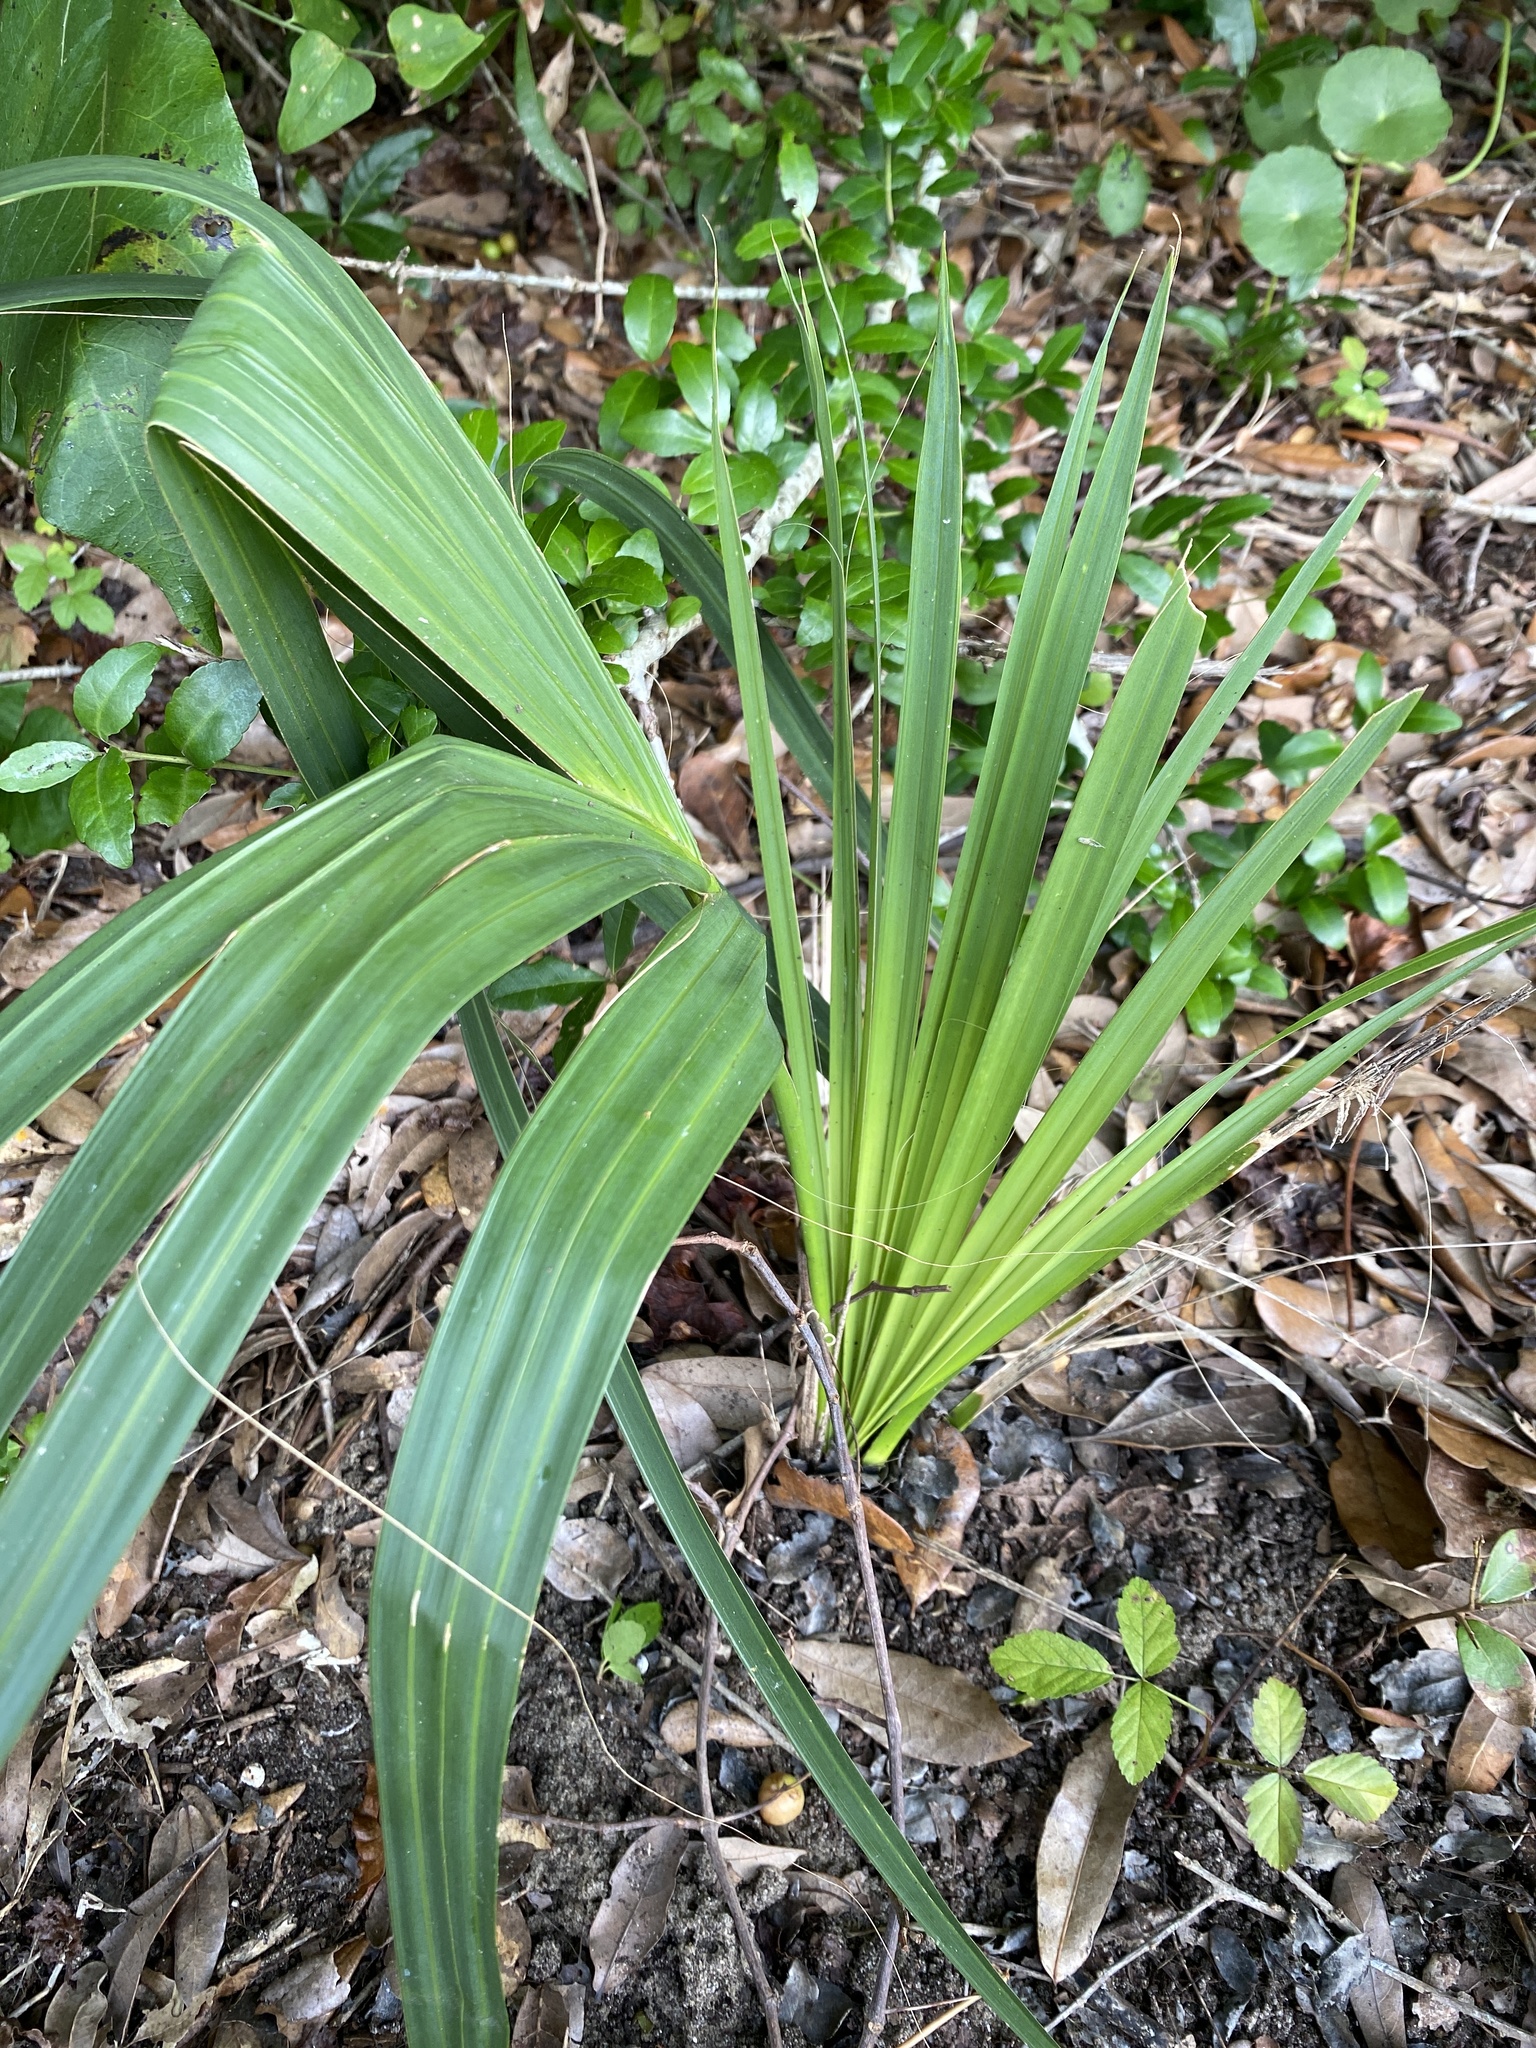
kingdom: Plantae
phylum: Tracheophyta
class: Liliopsida
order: Arecales
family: Arecaceae
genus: Sabal
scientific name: Sabal minor
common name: Dwarf palmetto
